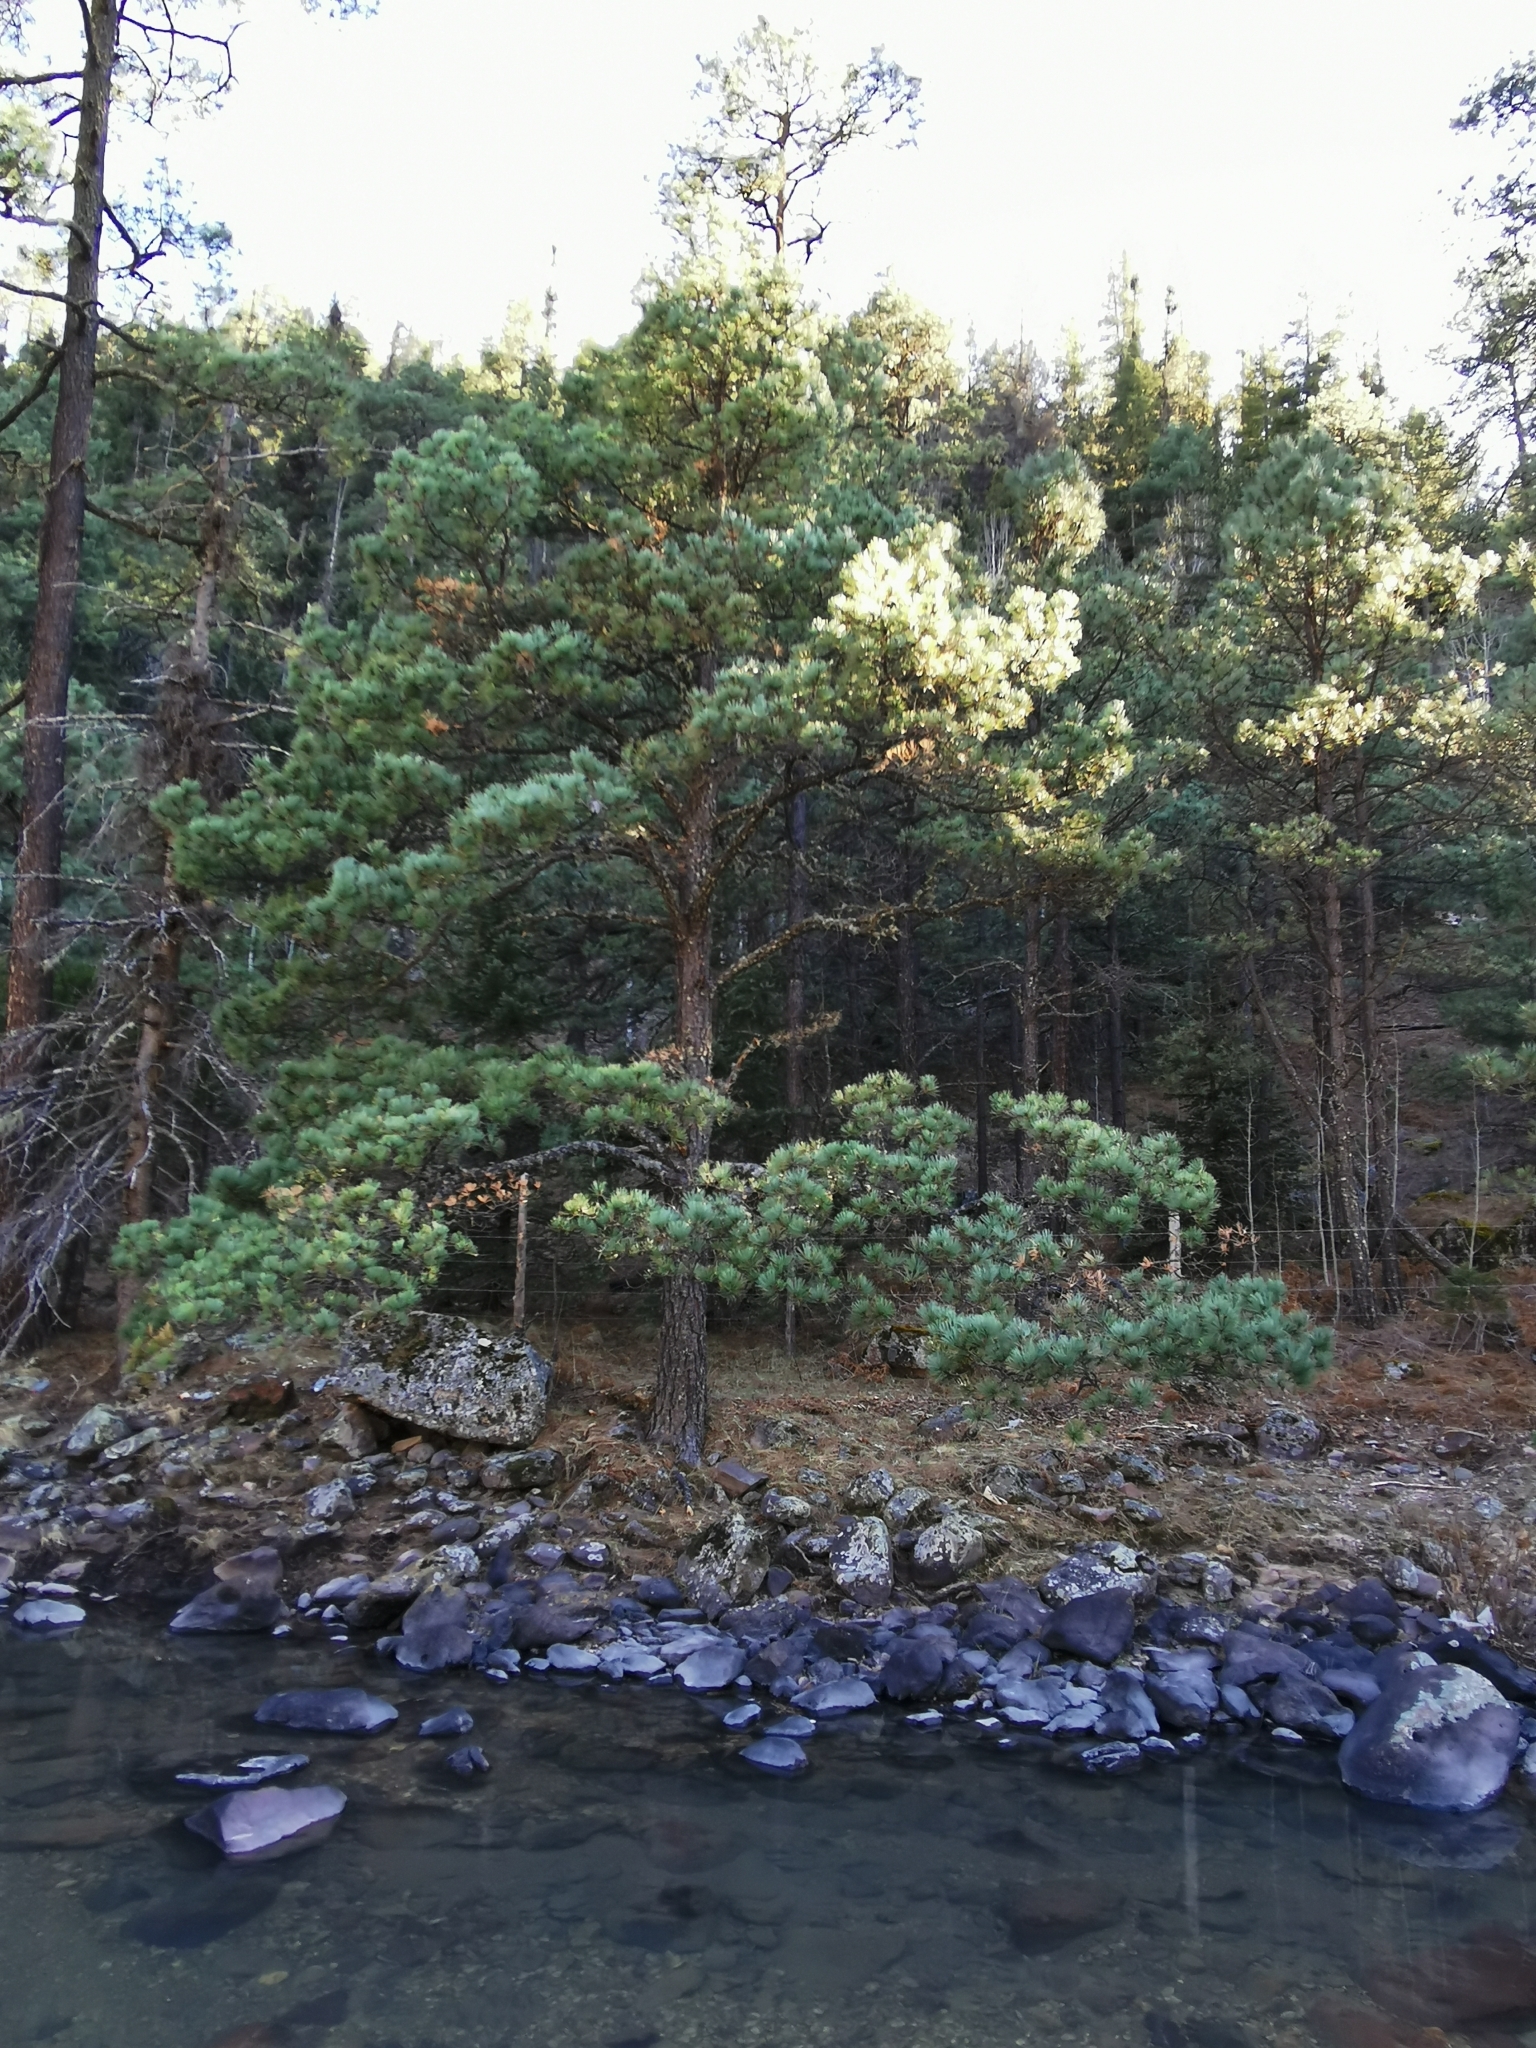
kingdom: Plantae
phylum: Tracheophyta
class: Pinopsida
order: Pinales
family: Pinaceae
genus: Pinus
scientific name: Pinus arizonica
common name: Arizona pine
